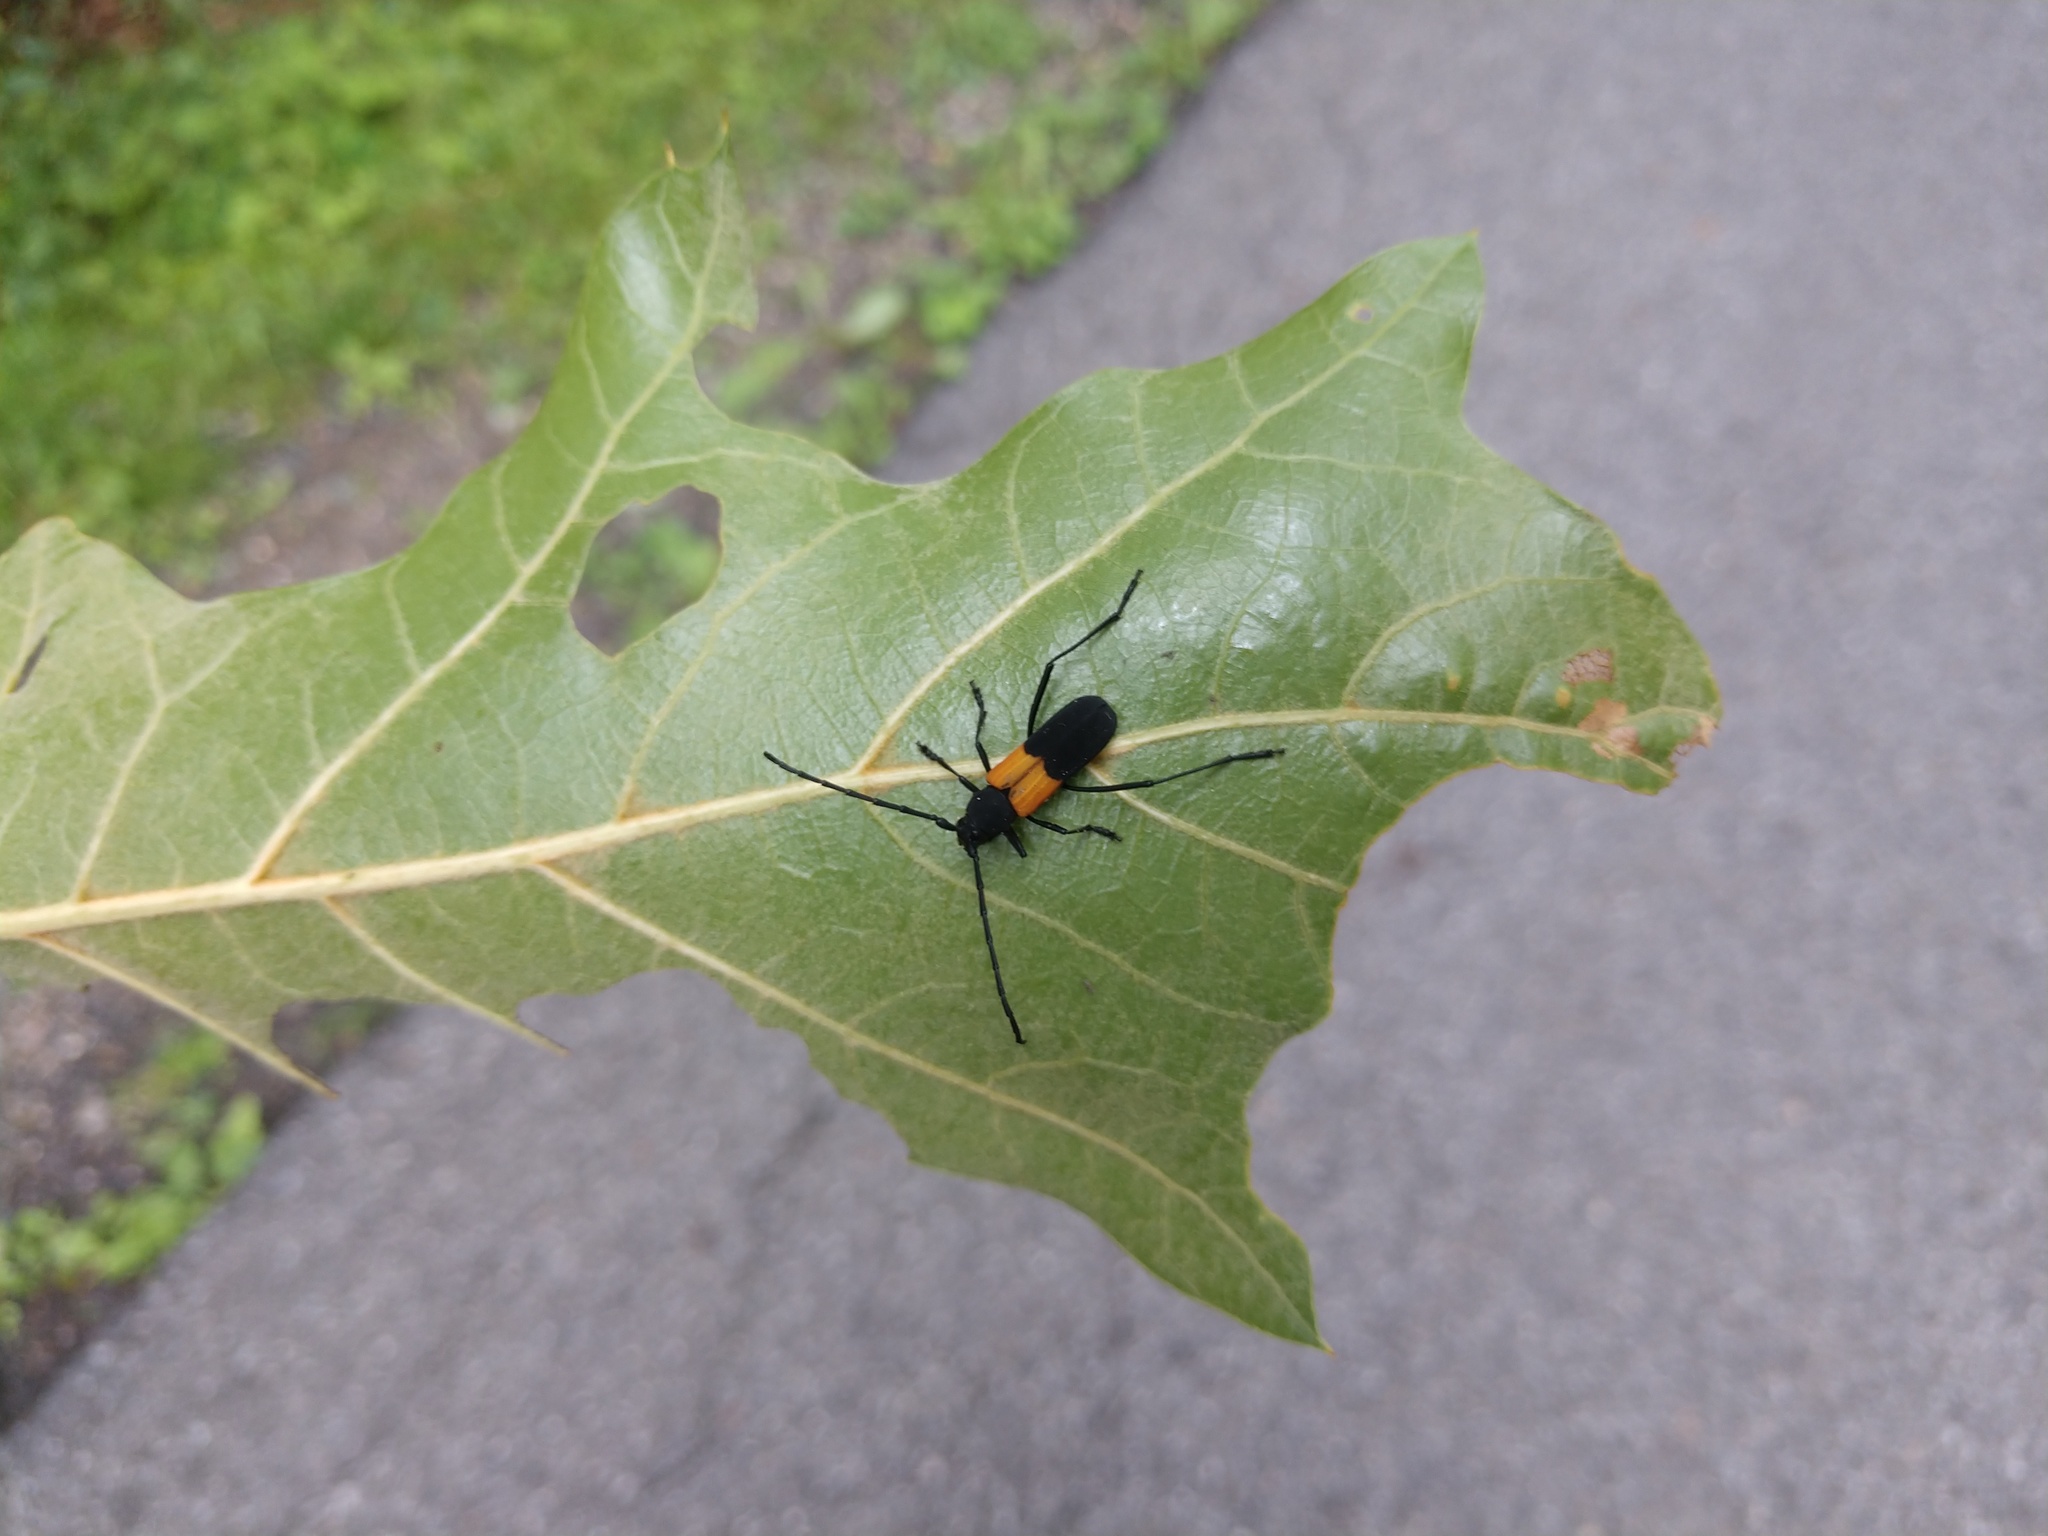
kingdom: Animalia
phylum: Arthropoda
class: Insecta
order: Coleoptera
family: Cerambycidae
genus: Purpuricenus
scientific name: Purpuricenus axillaris
